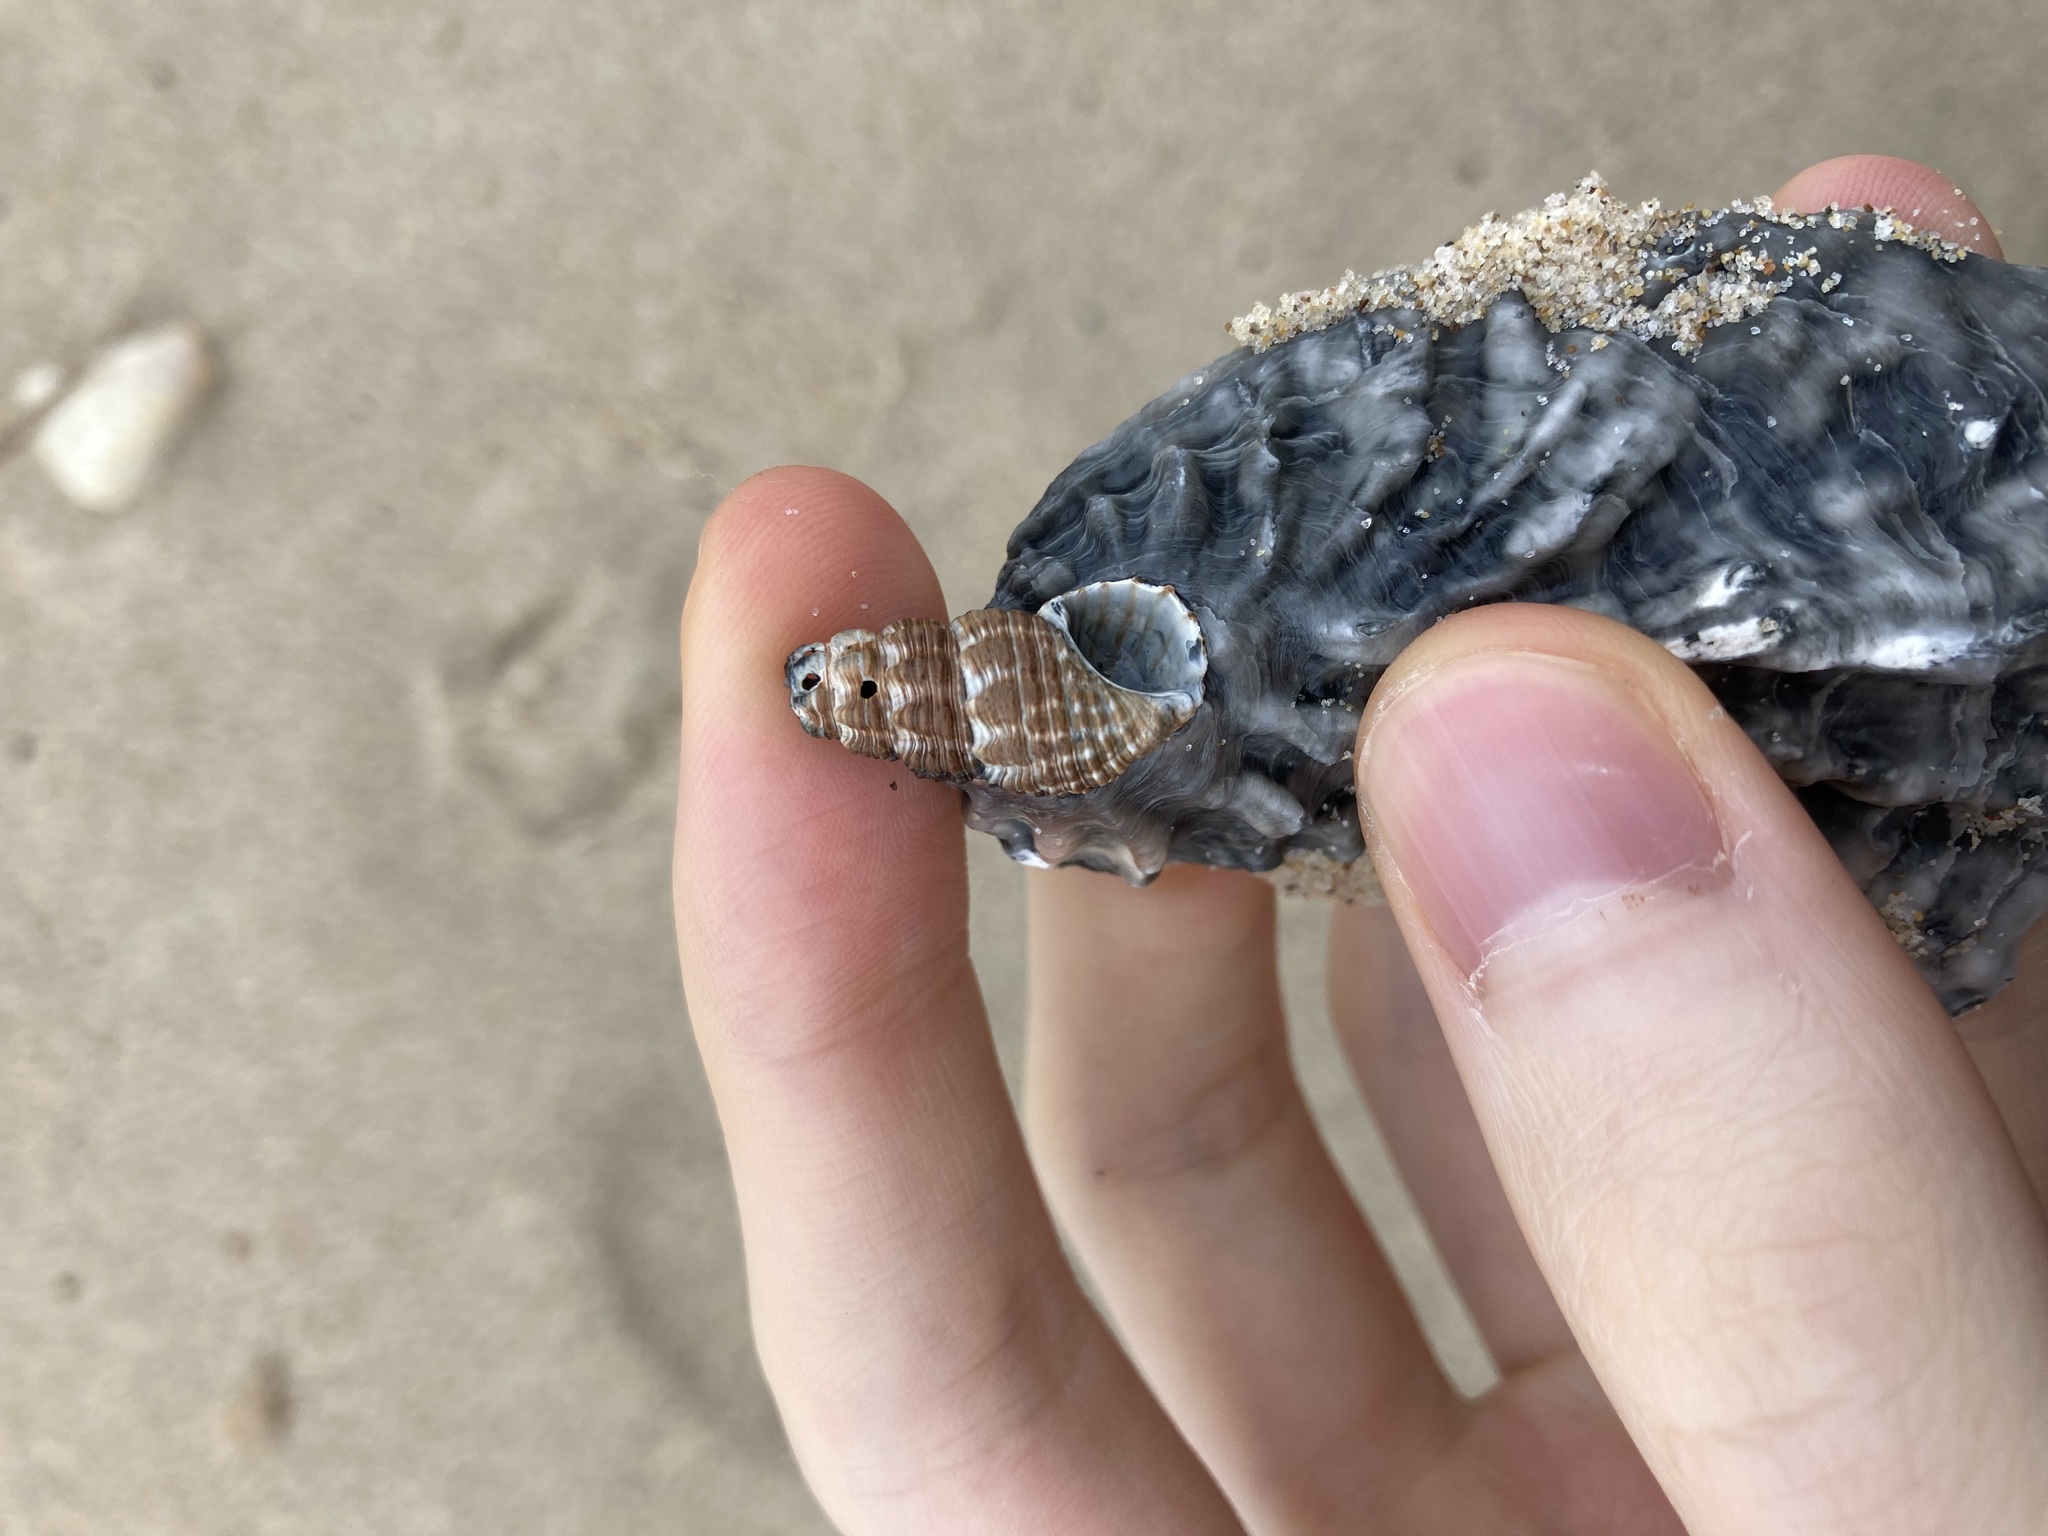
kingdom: Animalia
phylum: Mollusca
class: Gastropoda
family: Batillariidae
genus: Batillaria
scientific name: Batillaria australis
